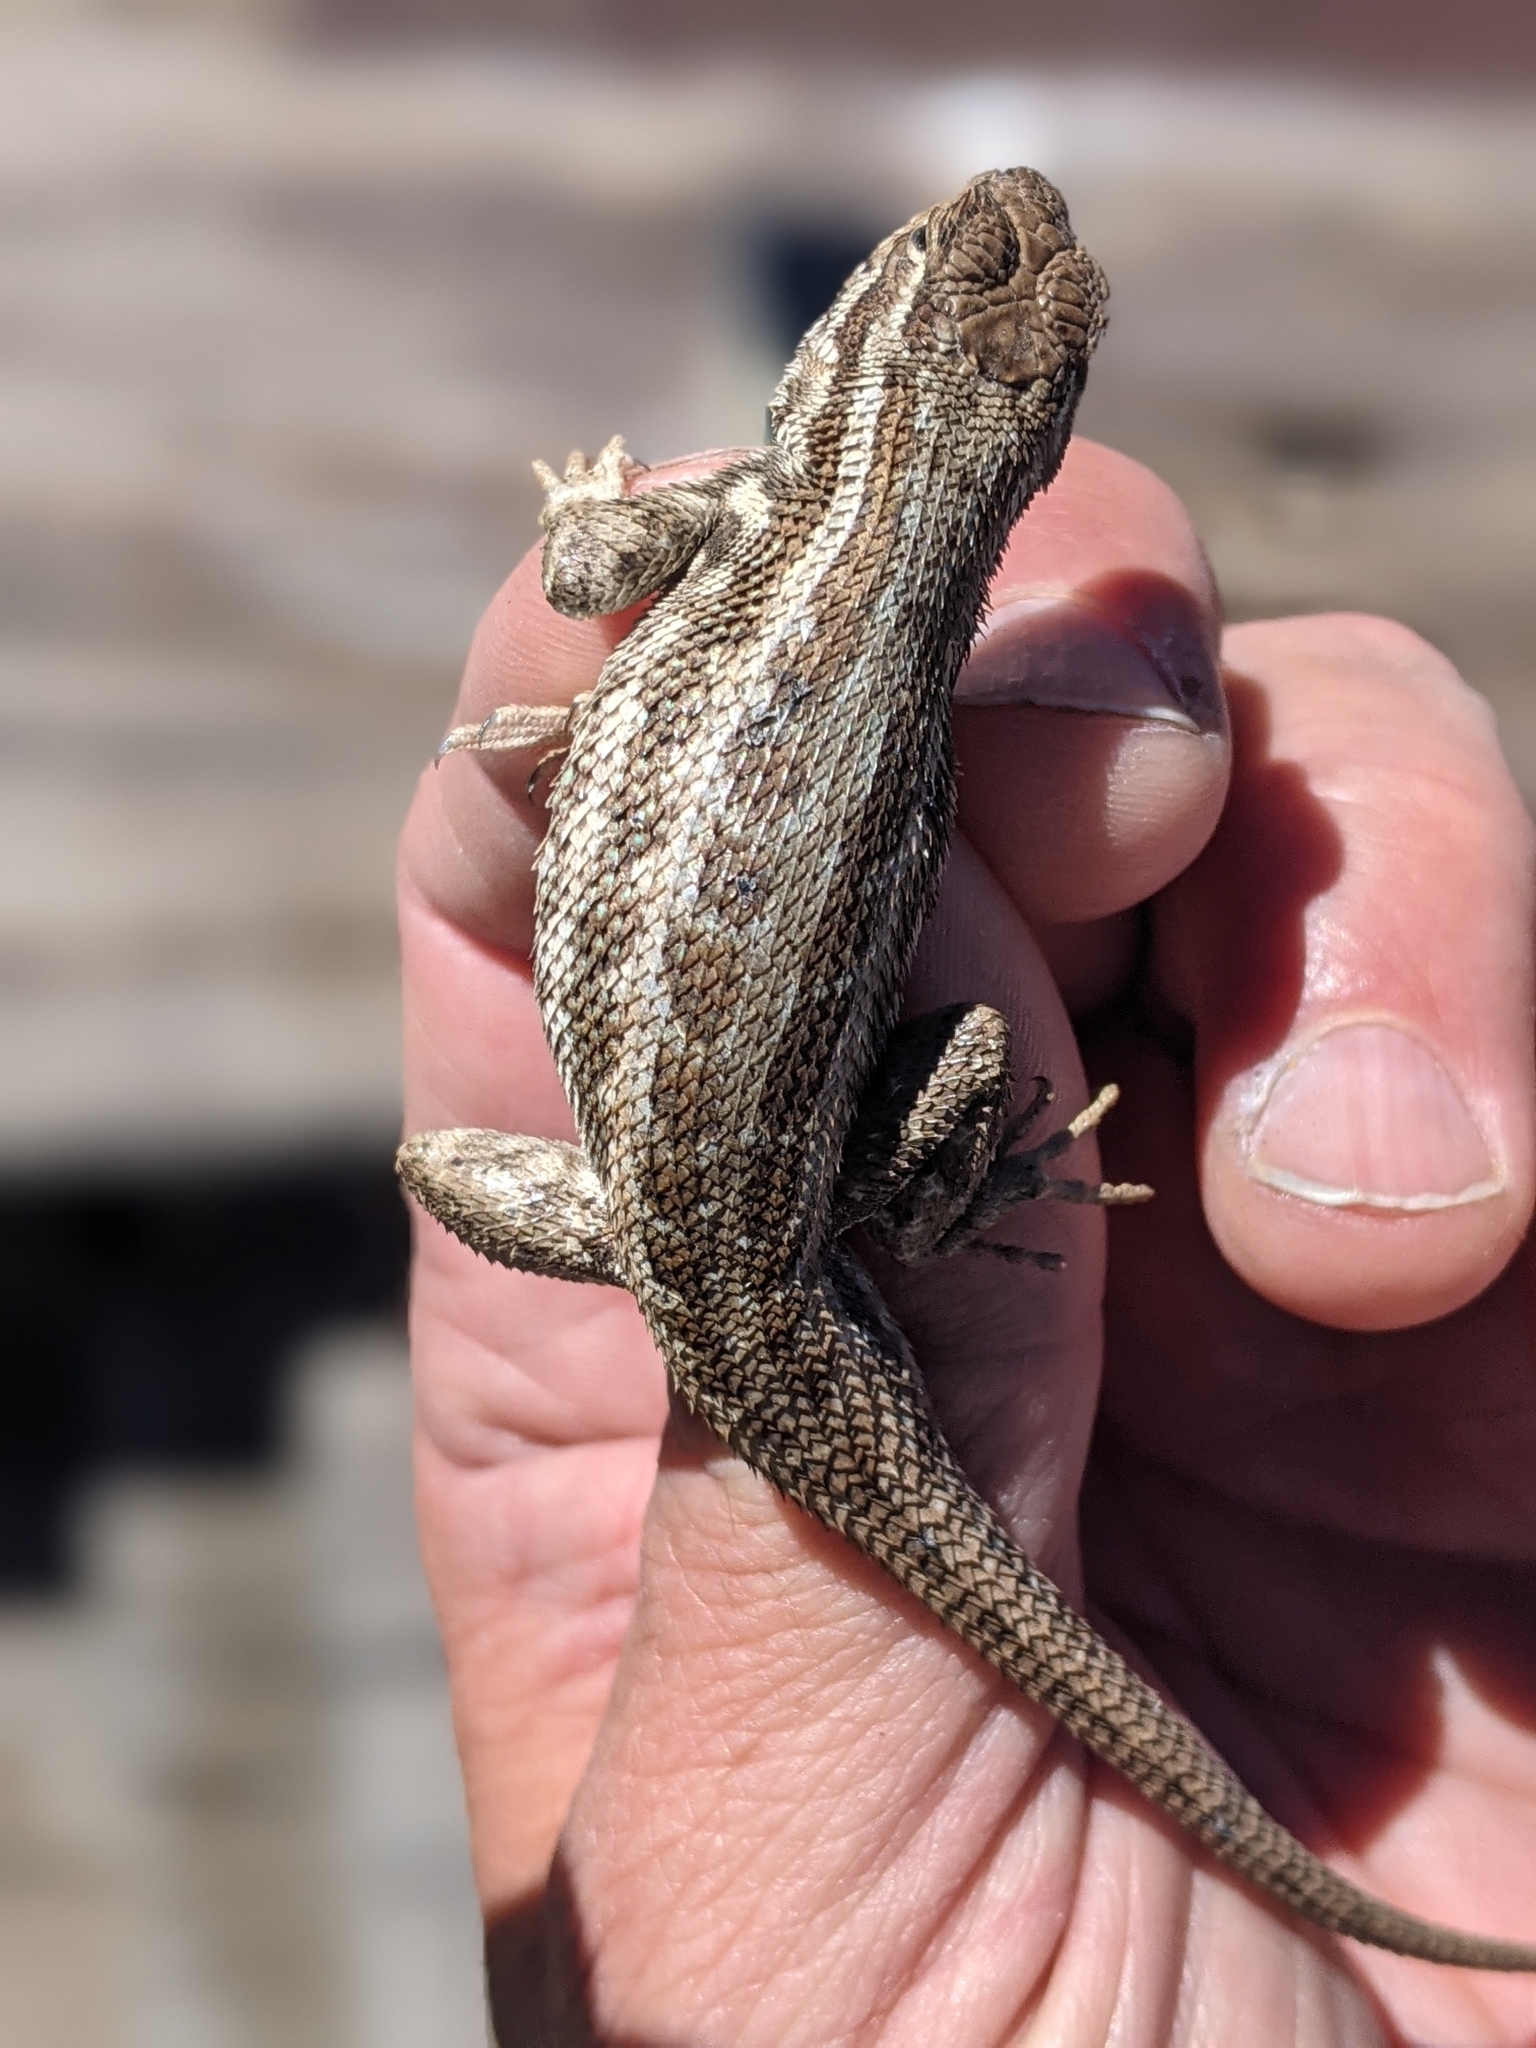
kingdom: Animalia
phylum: Chordata
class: Squamata
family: Phrynosomatidae
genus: Sceloporus
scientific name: Sceloporus graciosus
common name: Sagebrush lizard
